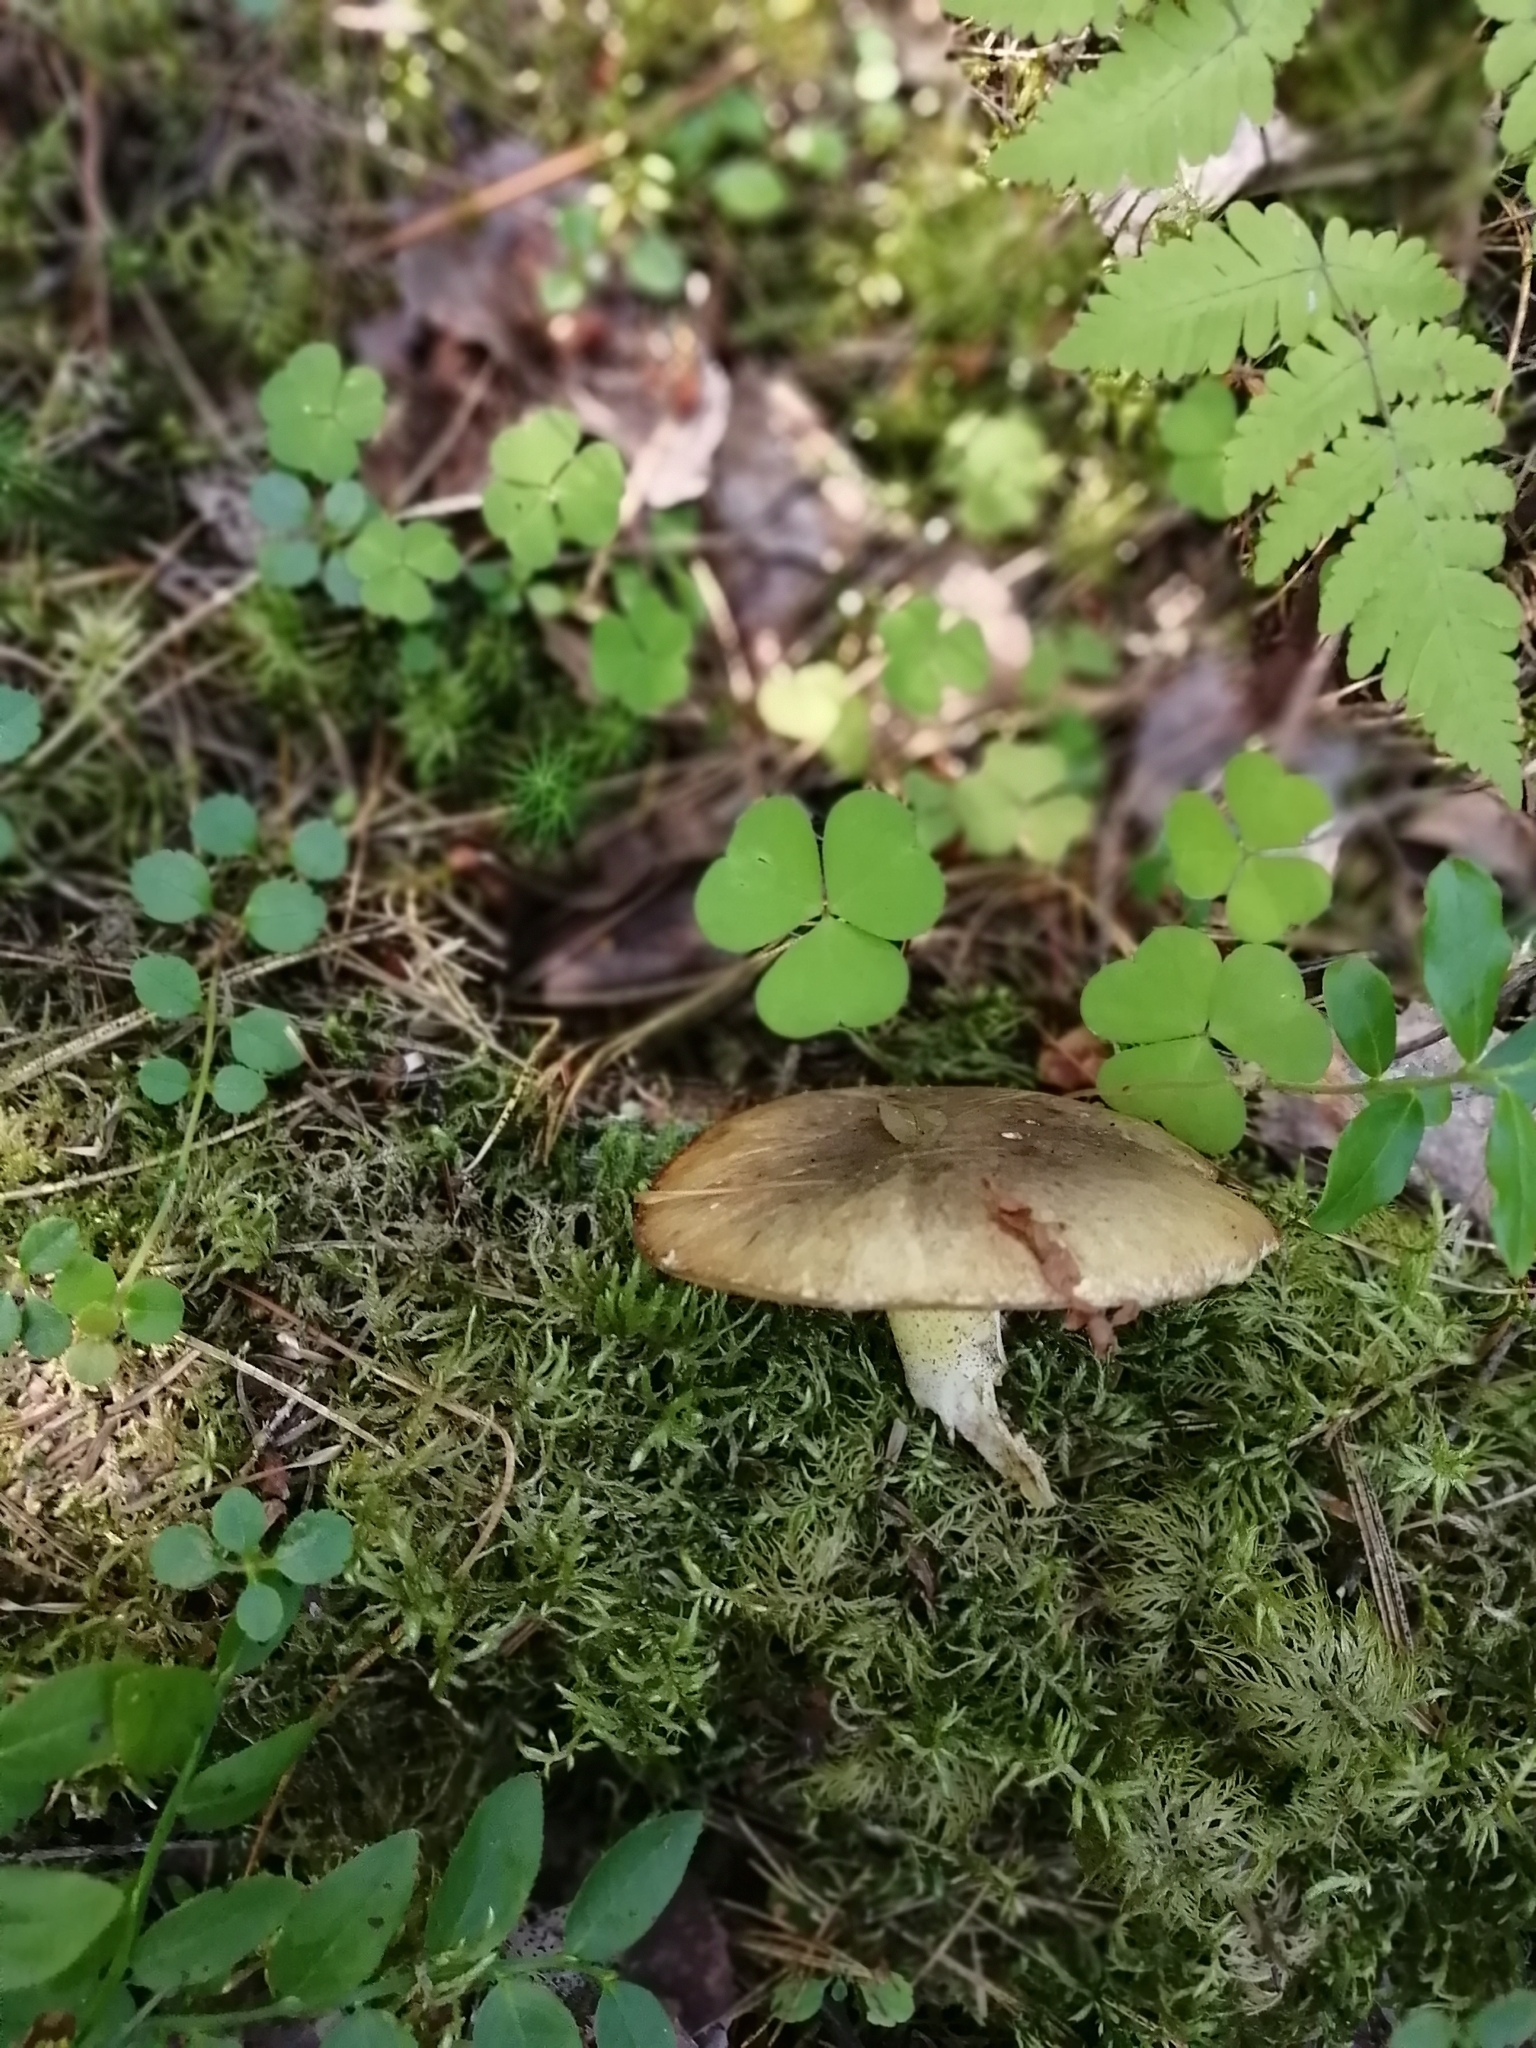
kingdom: Fungi
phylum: Basidiomycota
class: Agaricomycetes
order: Boletales
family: Suillaceae
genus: Suillus
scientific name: Suillus placidus
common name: Slippery white bolete
